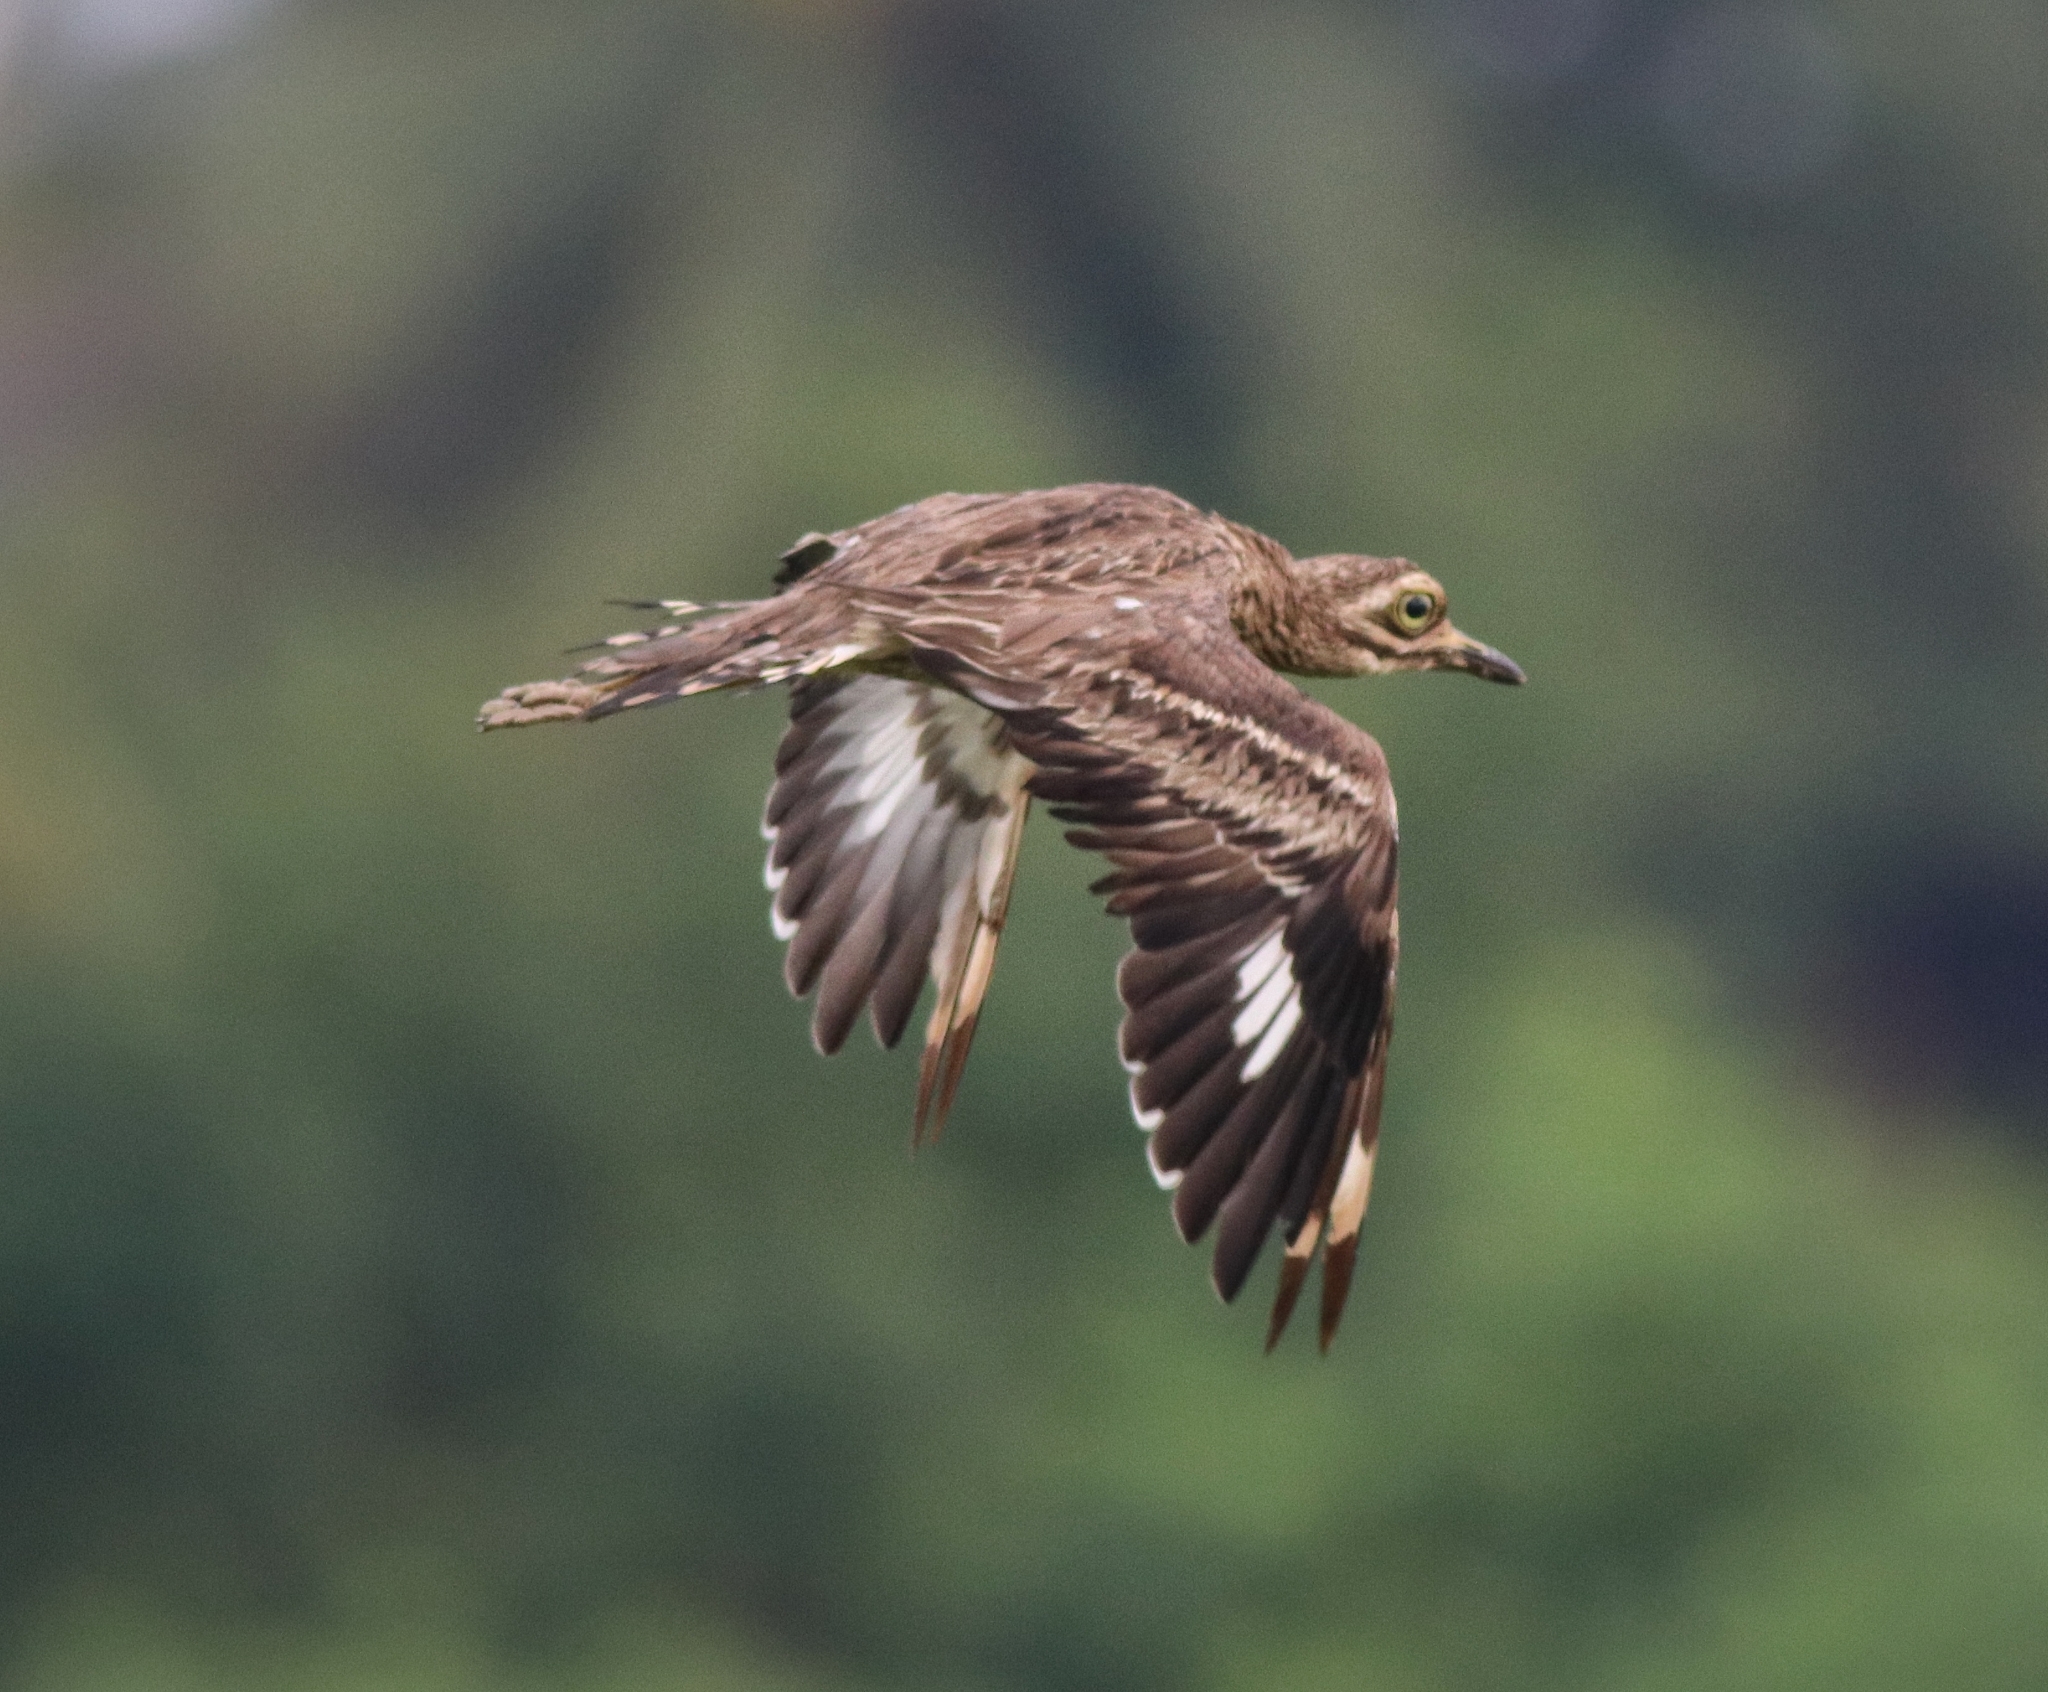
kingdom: Animalia
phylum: Chordata
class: Aves
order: Charadriiformes
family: Burhinidae
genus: Burhinus
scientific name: Burhinus indicus
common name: Indian thick-knee
